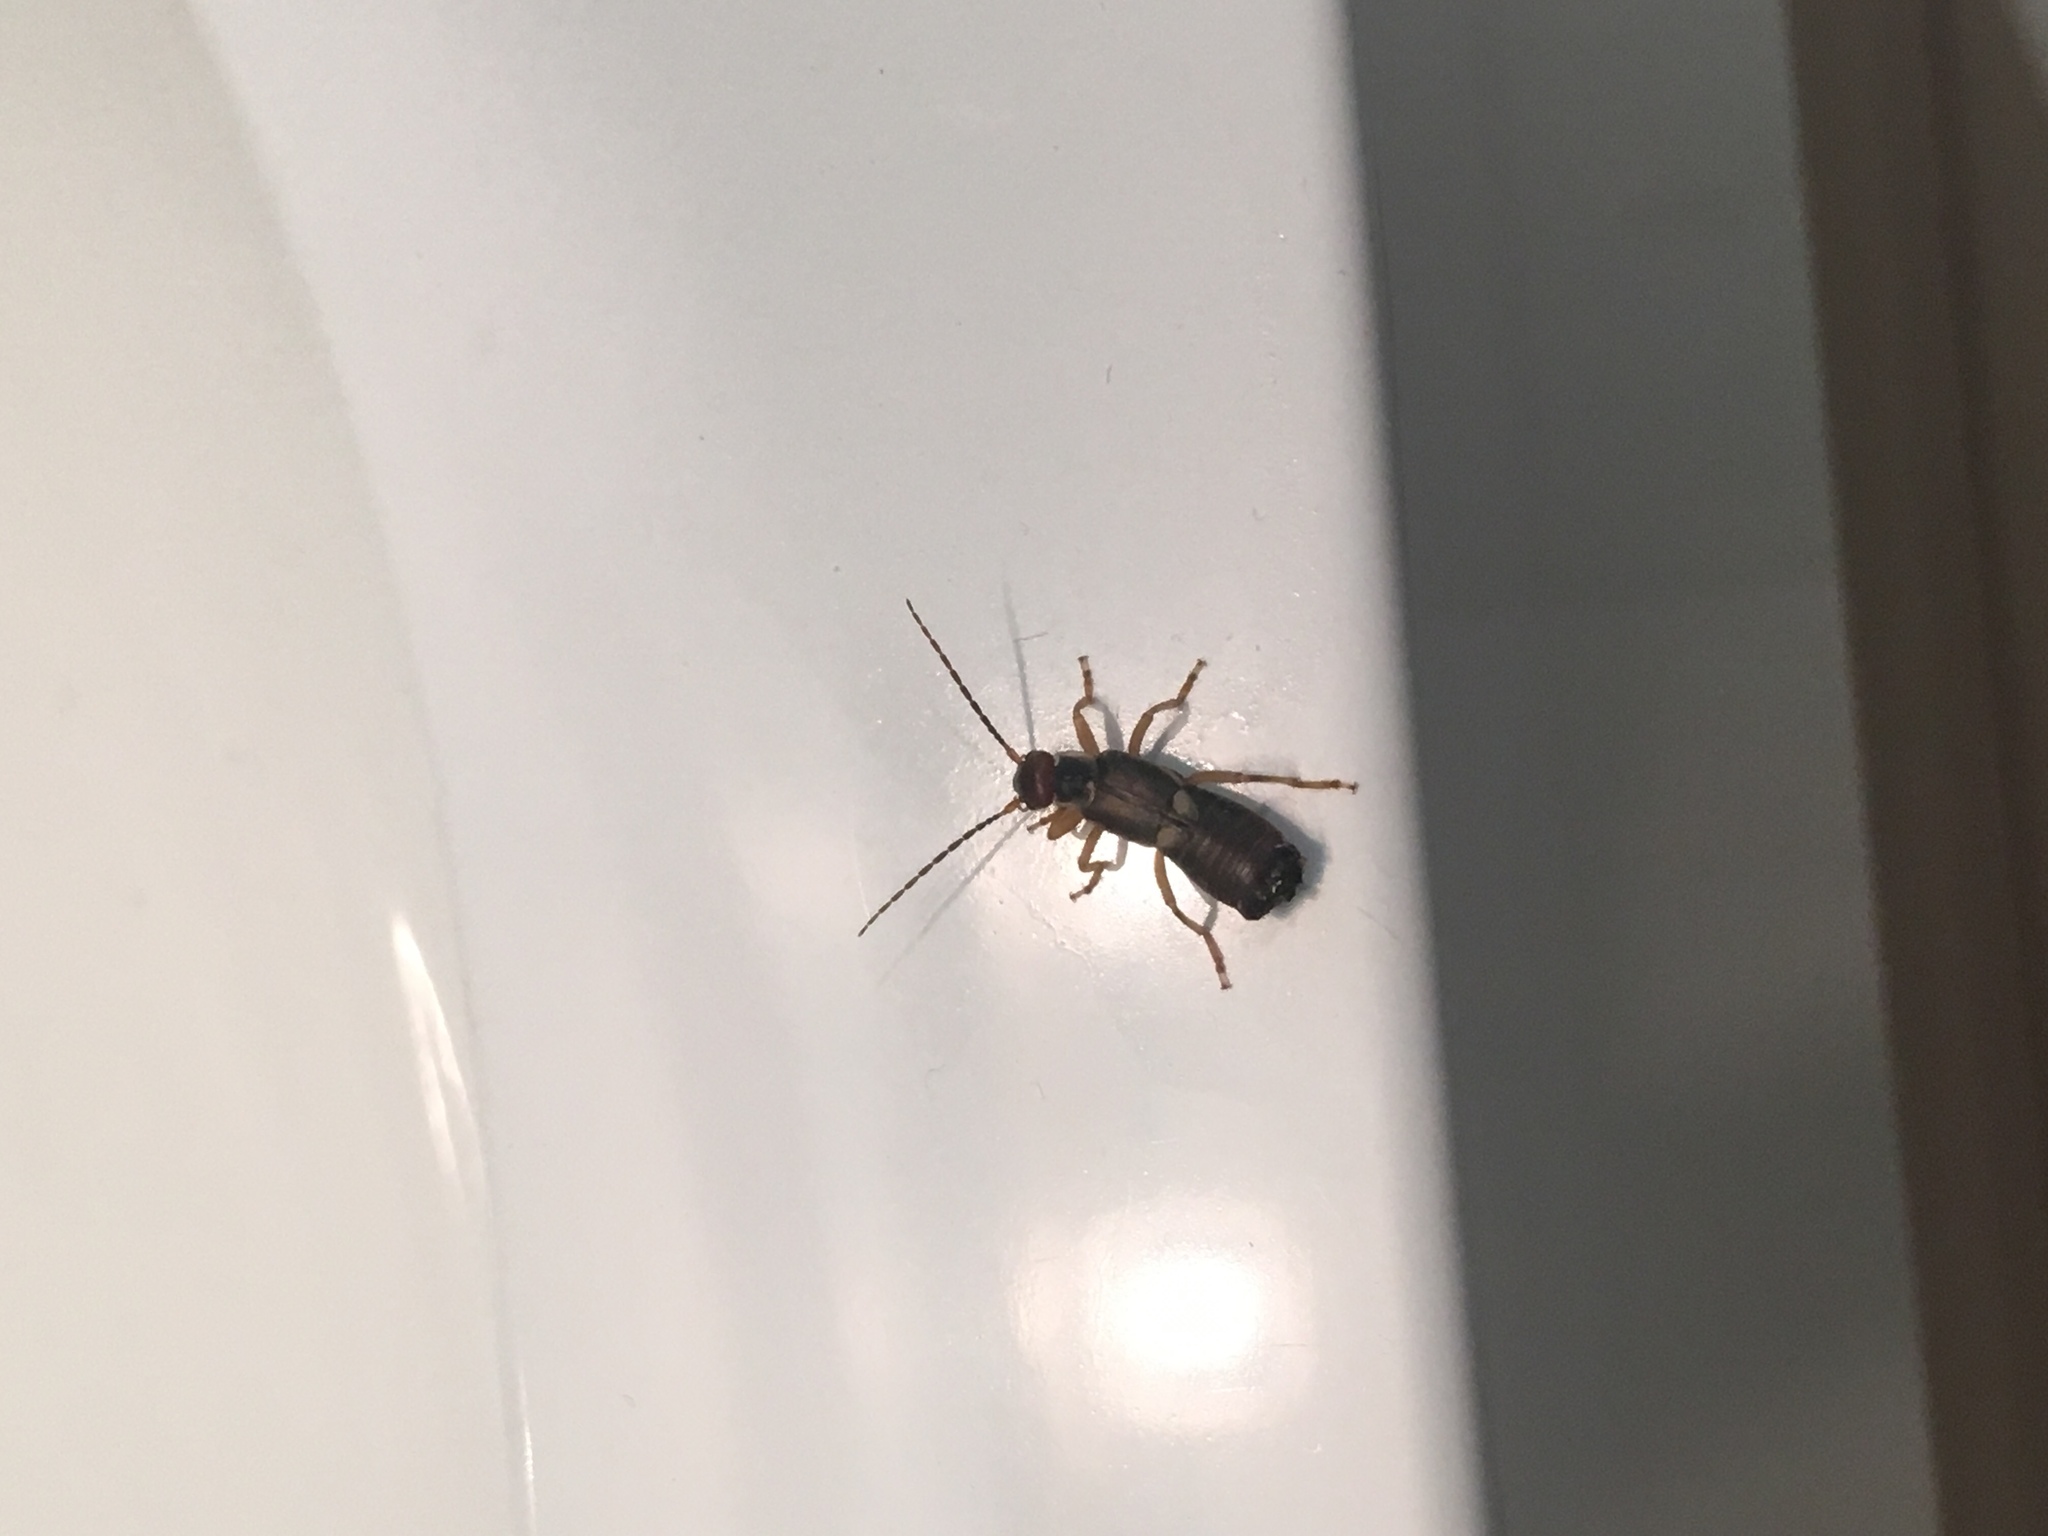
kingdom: Animalia
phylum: Arthropoda
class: Insecta
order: Dermaptera
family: Forficulidae
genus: Forficula
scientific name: Forficula
